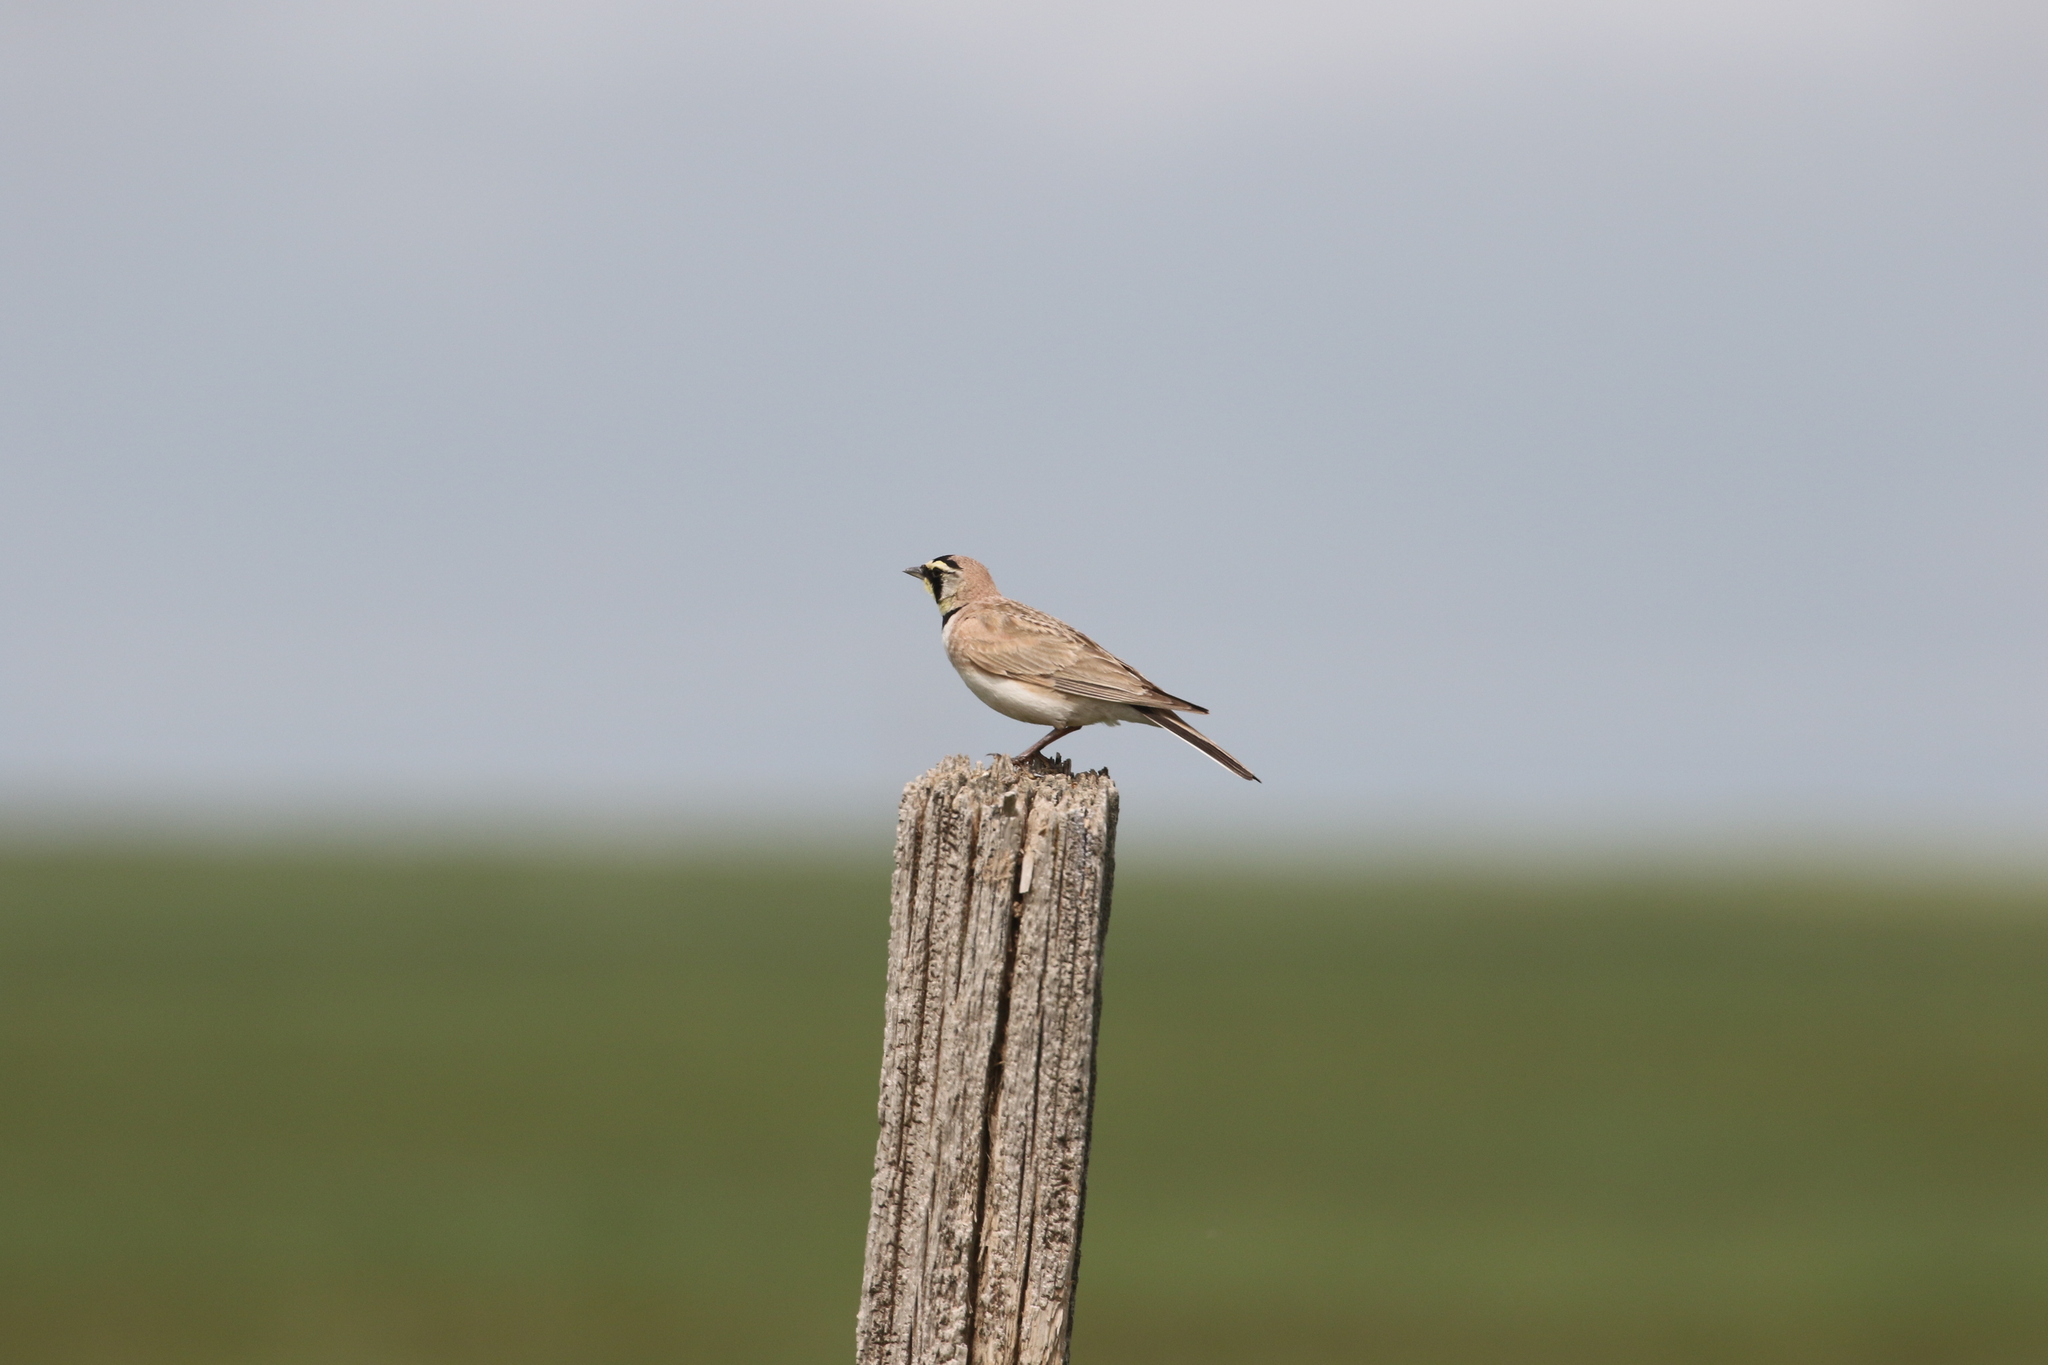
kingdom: Animalia
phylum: Chordata
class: Aves
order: Passeriformes
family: Alaudidae
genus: Eremophila
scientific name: Eremophila alpestris
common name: Horned lark
